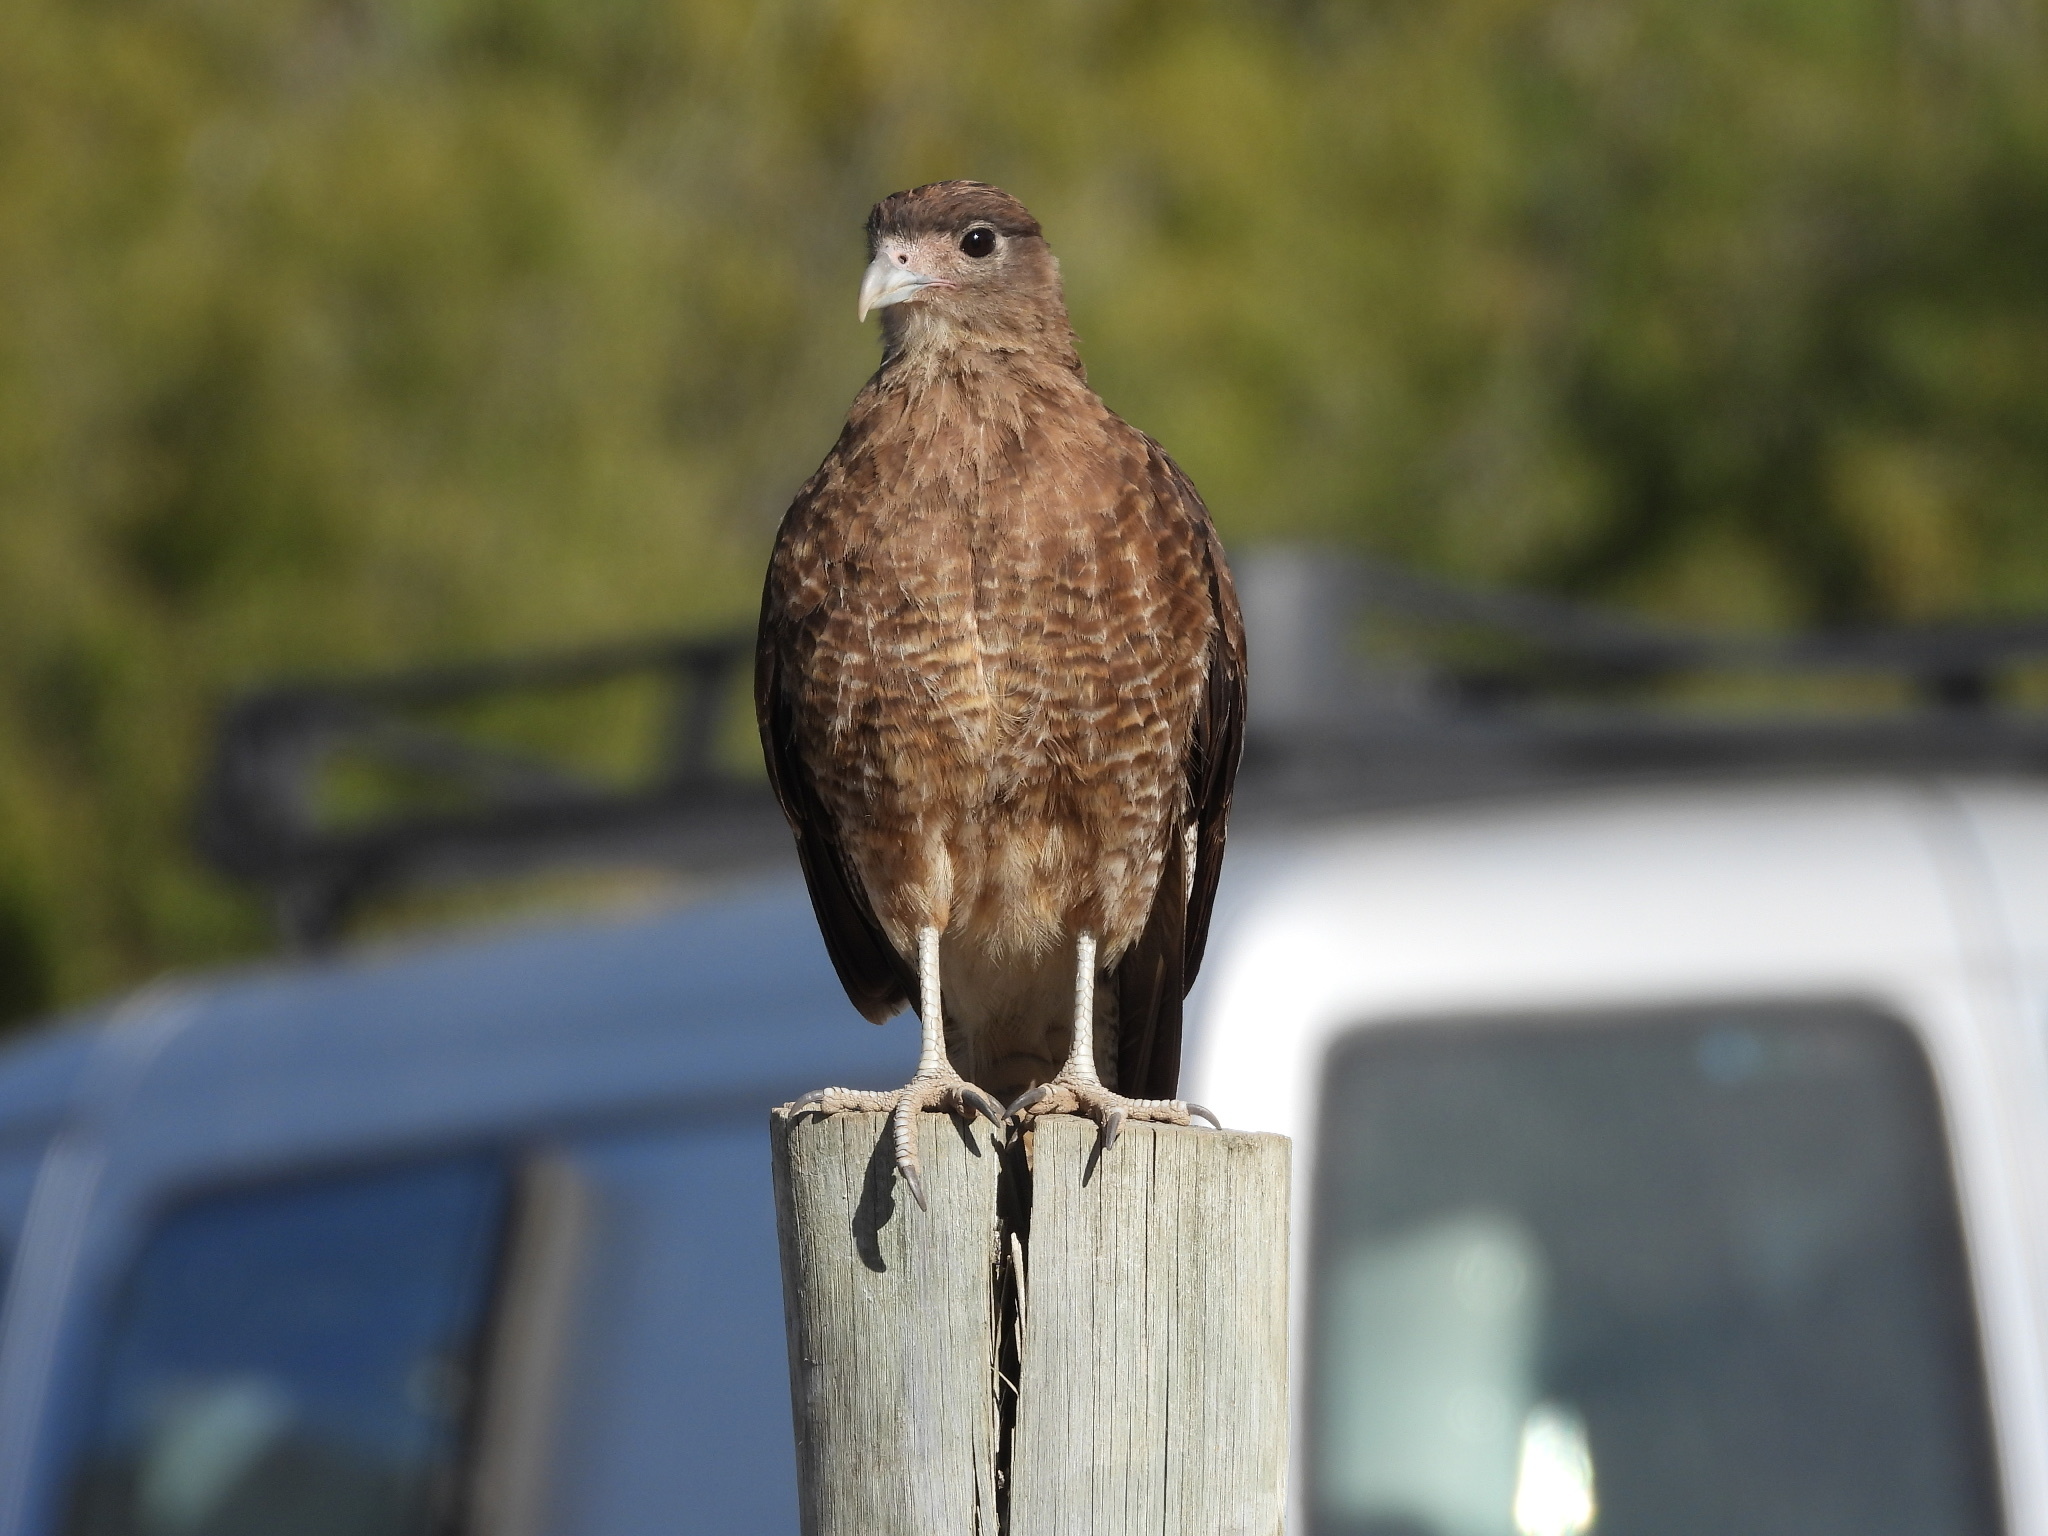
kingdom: Animalia
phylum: Chordata
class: Aves
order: Falconiformes
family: Falconidae
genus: Daptrius
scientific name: Daptrius
